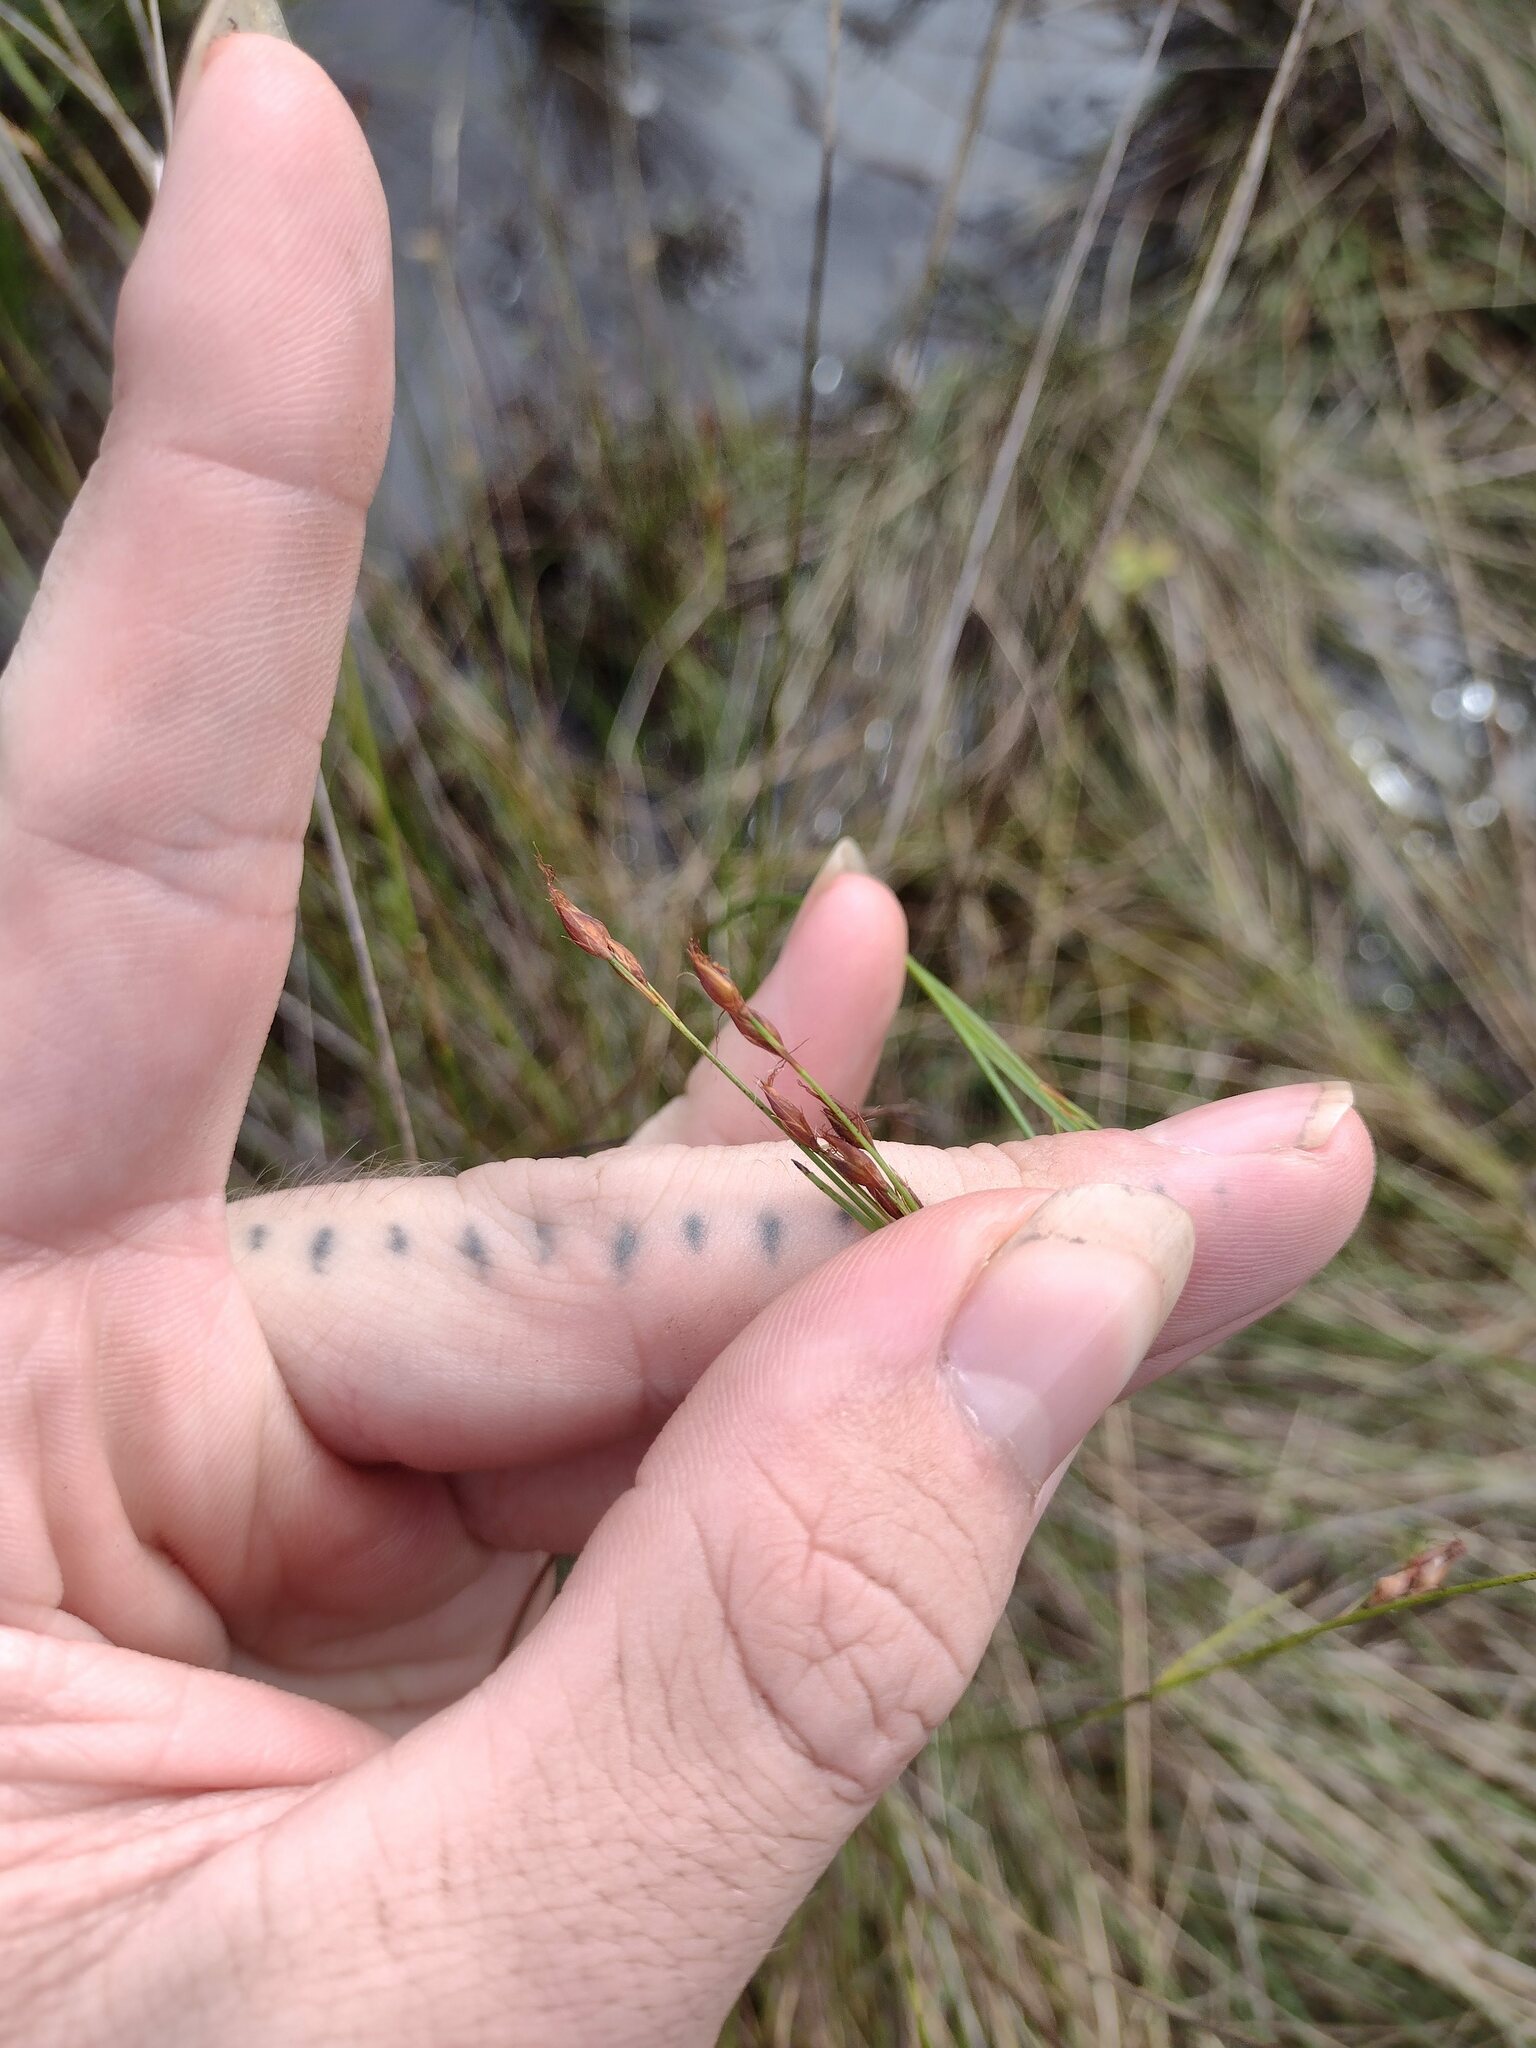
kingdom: Plantae
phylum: Tracheophyta
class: Liliopsida
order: Poales
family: Cyperaceae
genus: Rhynchospora
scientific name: Rhynchospora chinensis
